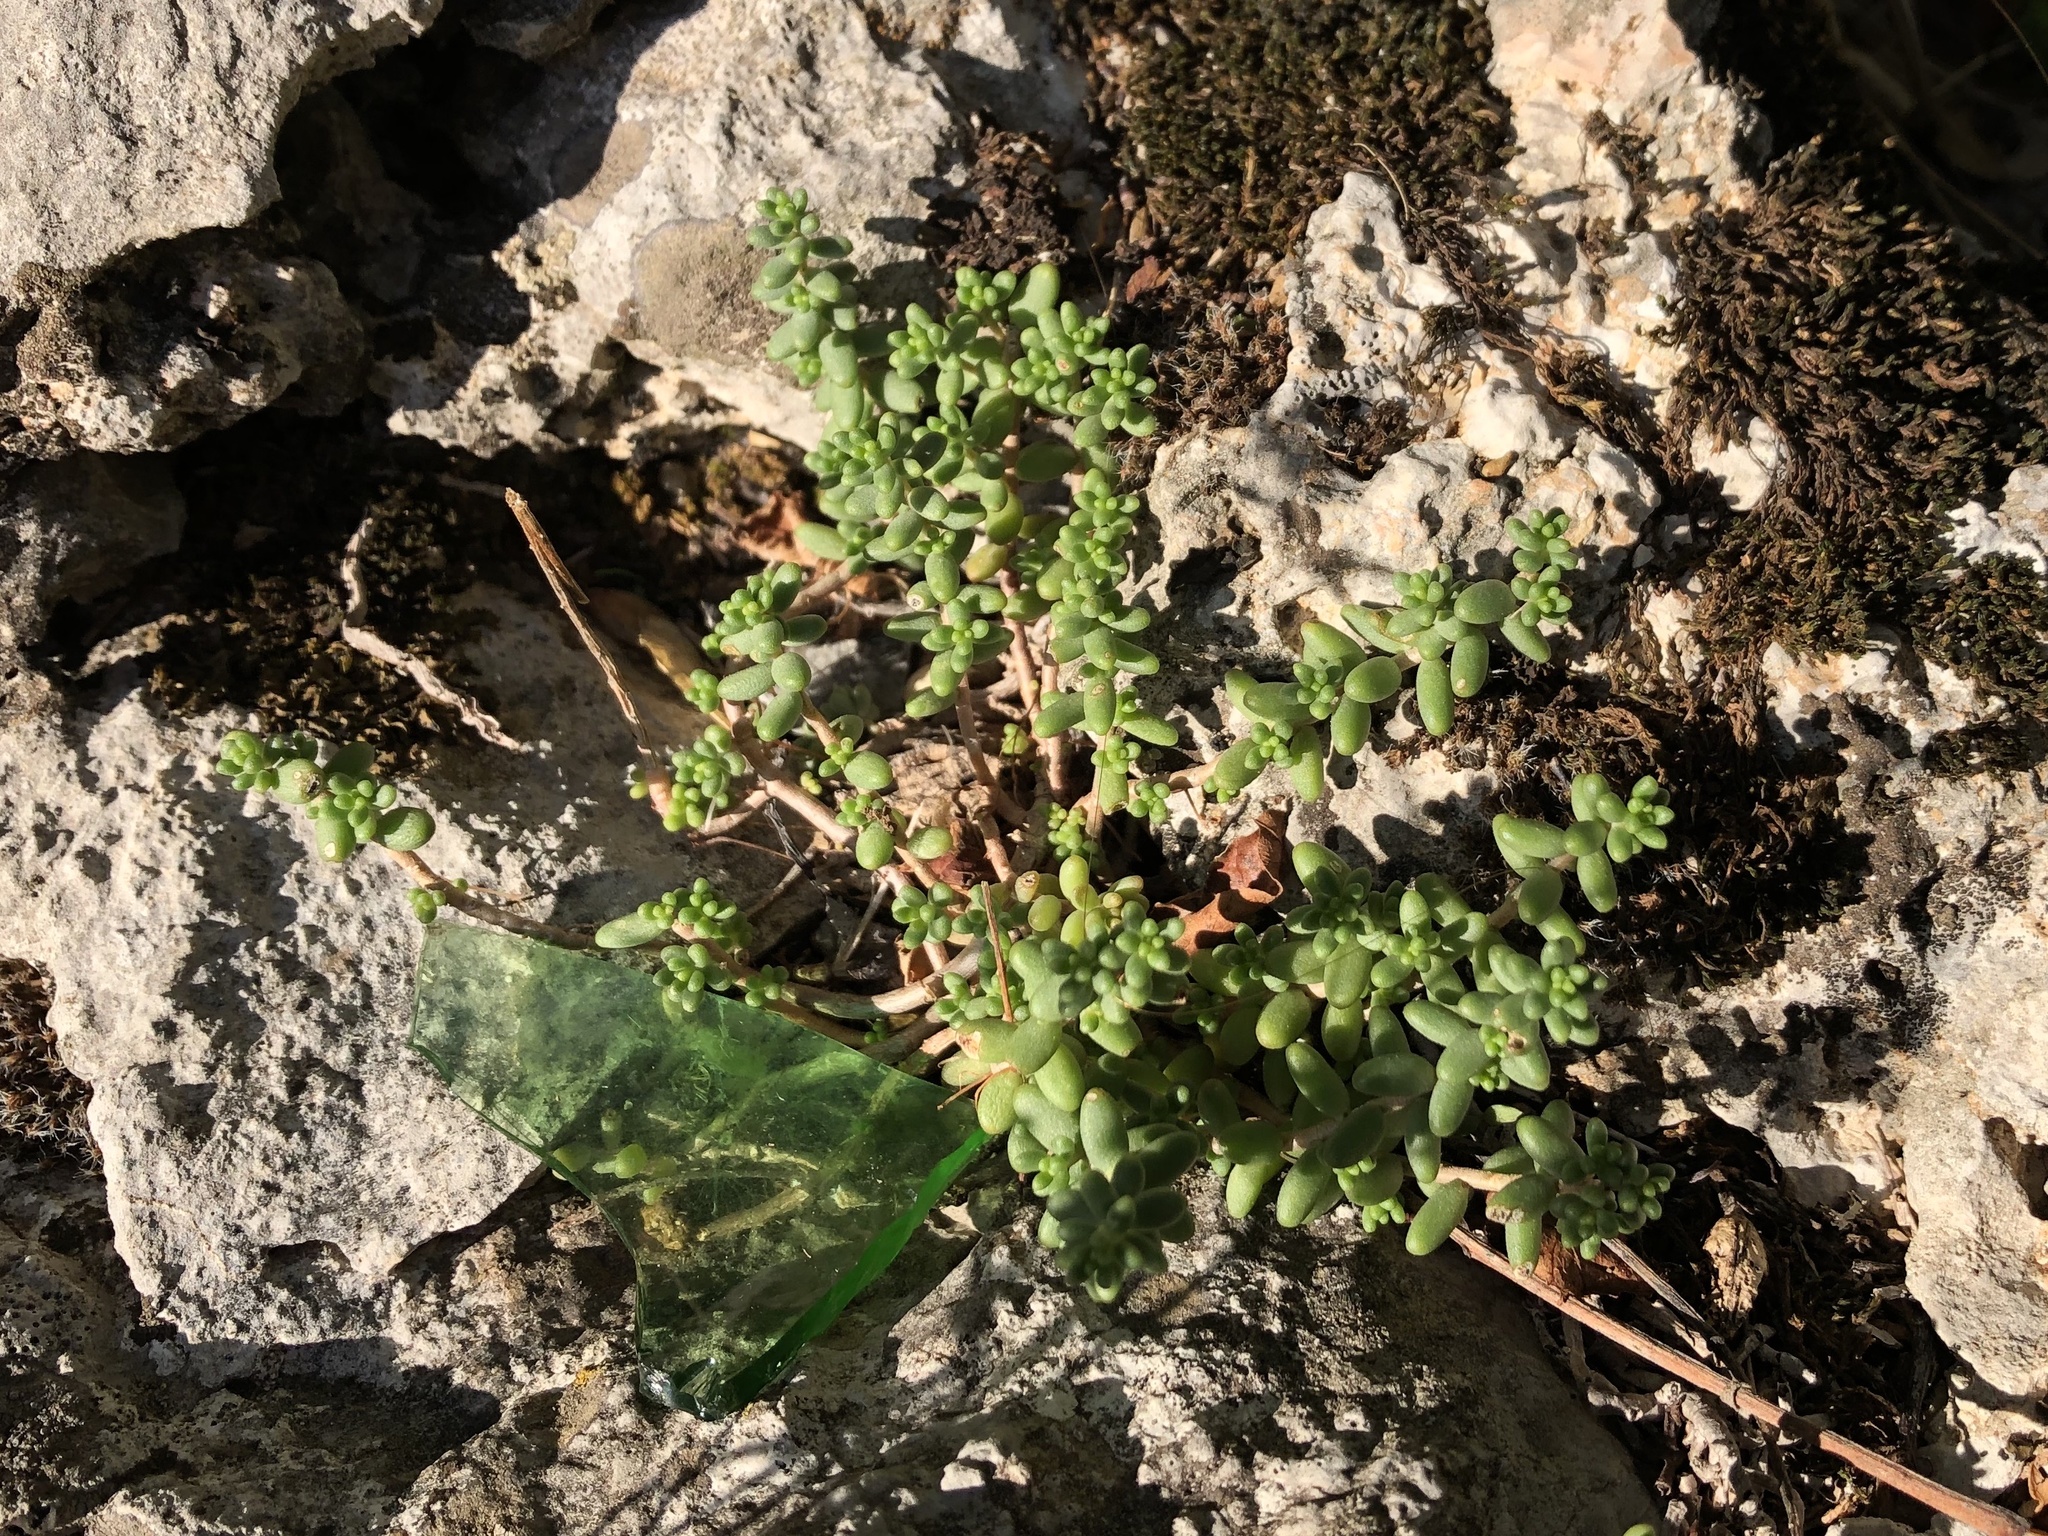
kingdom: Plantae
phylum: Tracheophyta
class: Magnoliopsida
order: Saxifragales
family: Crassulaceae
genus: Sedum
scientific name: Sedum album
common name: White stonecrop
